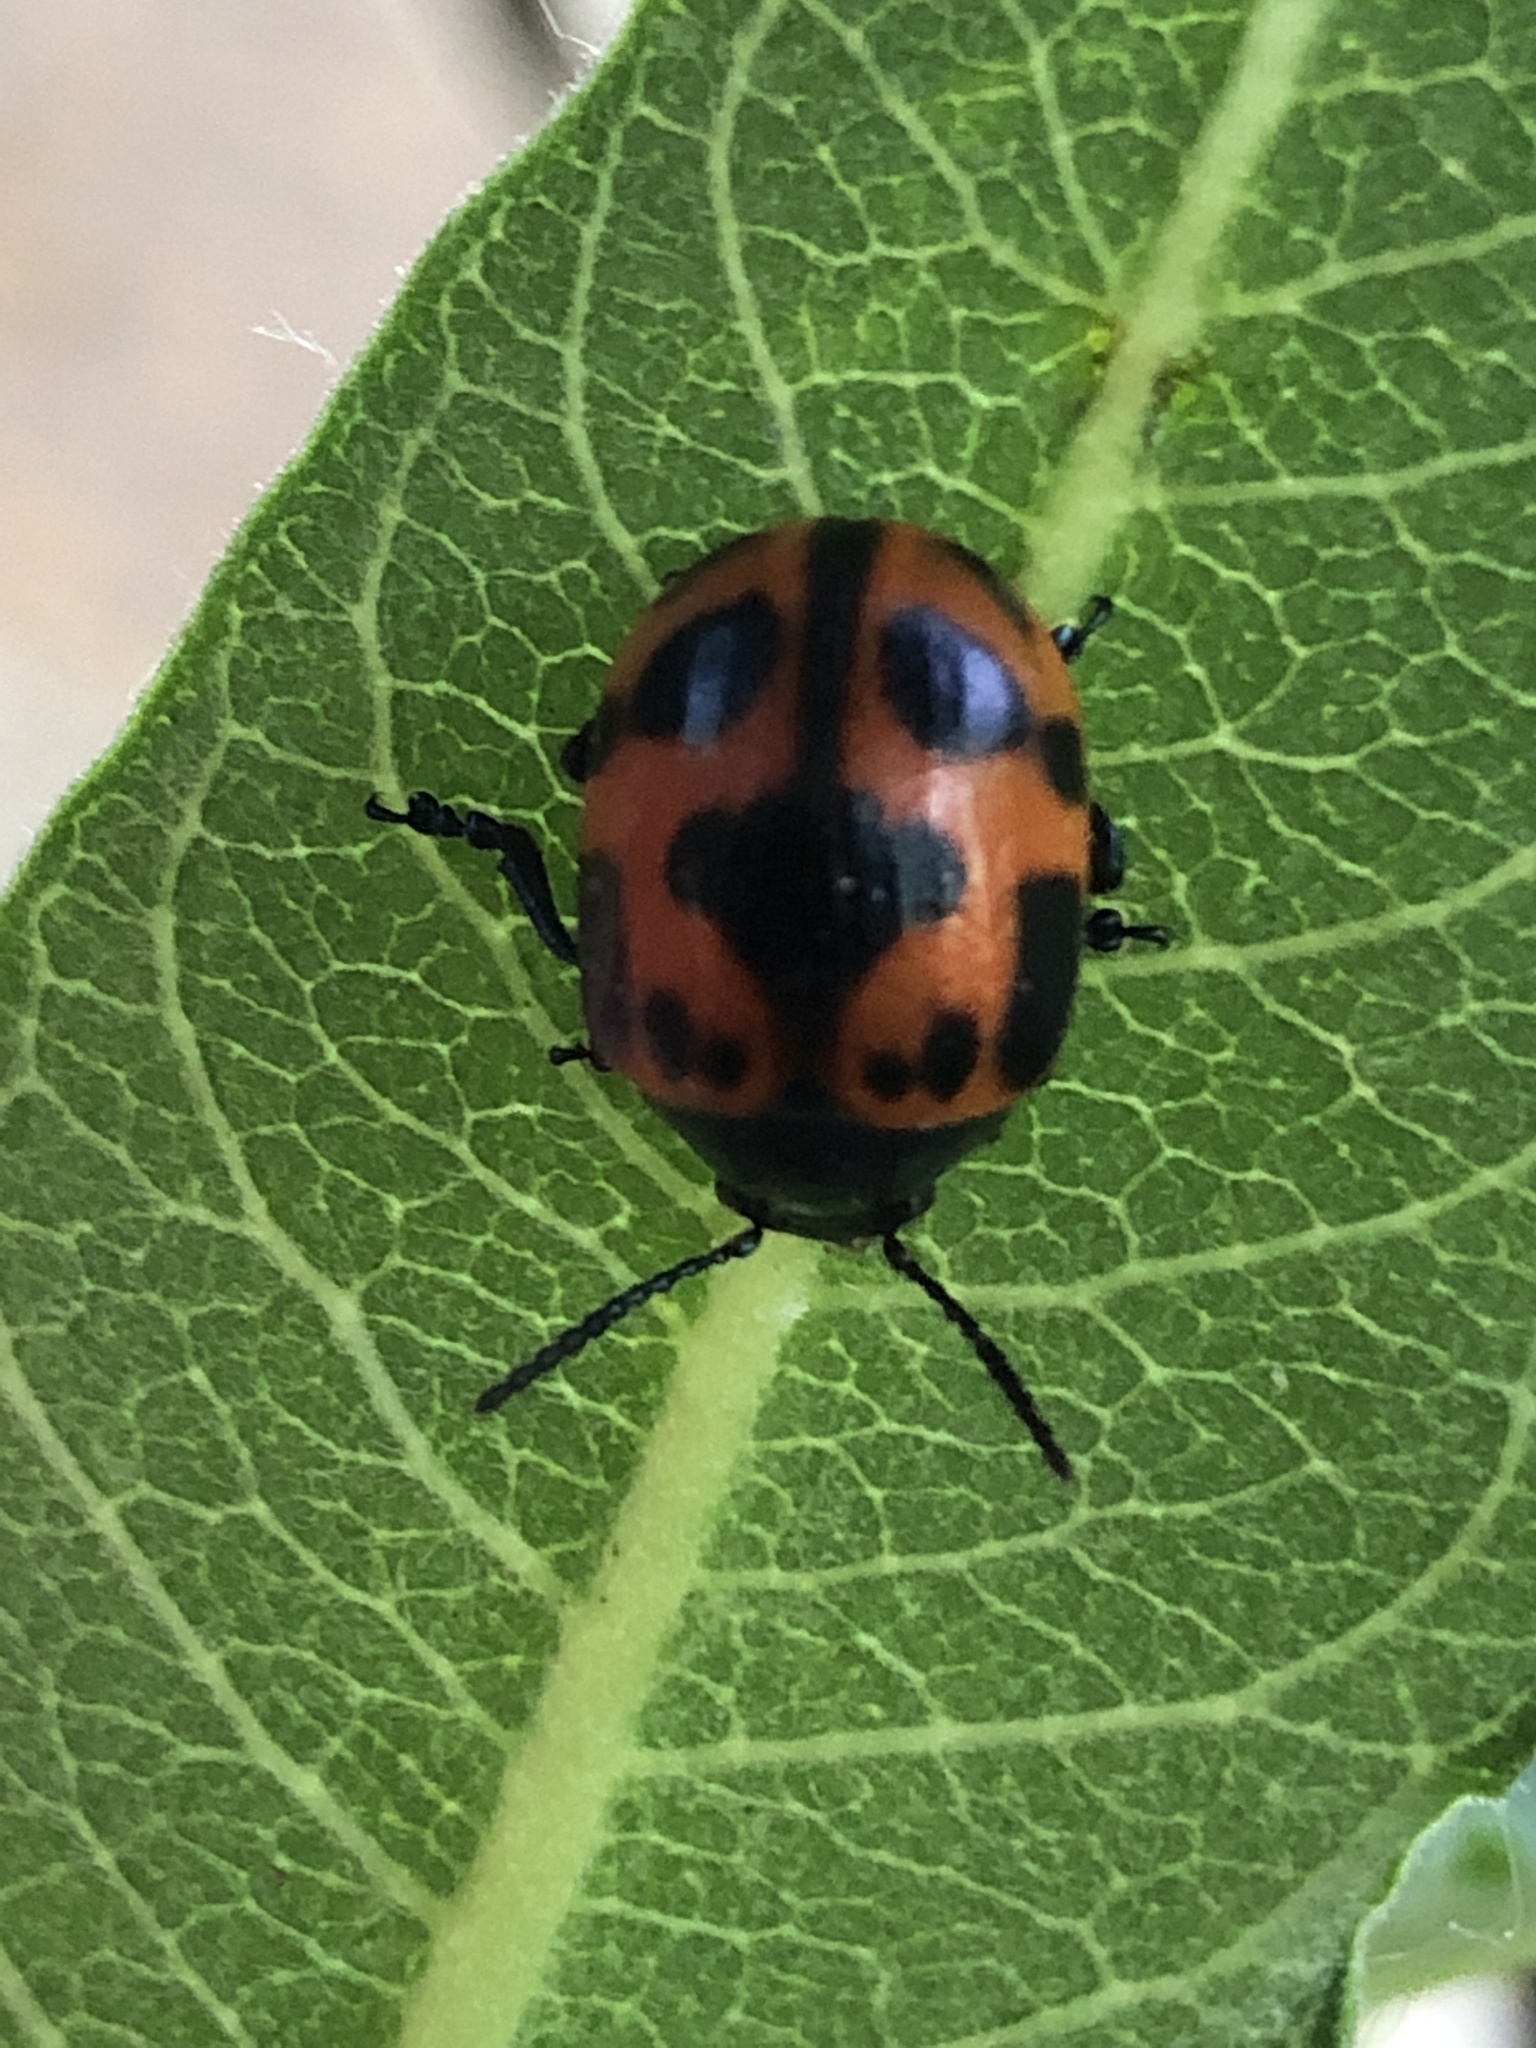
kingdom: Animalia
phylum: Arthropoda
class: Insecta
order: Coleoptera
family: Chrysomelidae
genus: Labidomera
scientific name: Labidomera clivicollis
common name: Swamp milkweed leaf beetle
